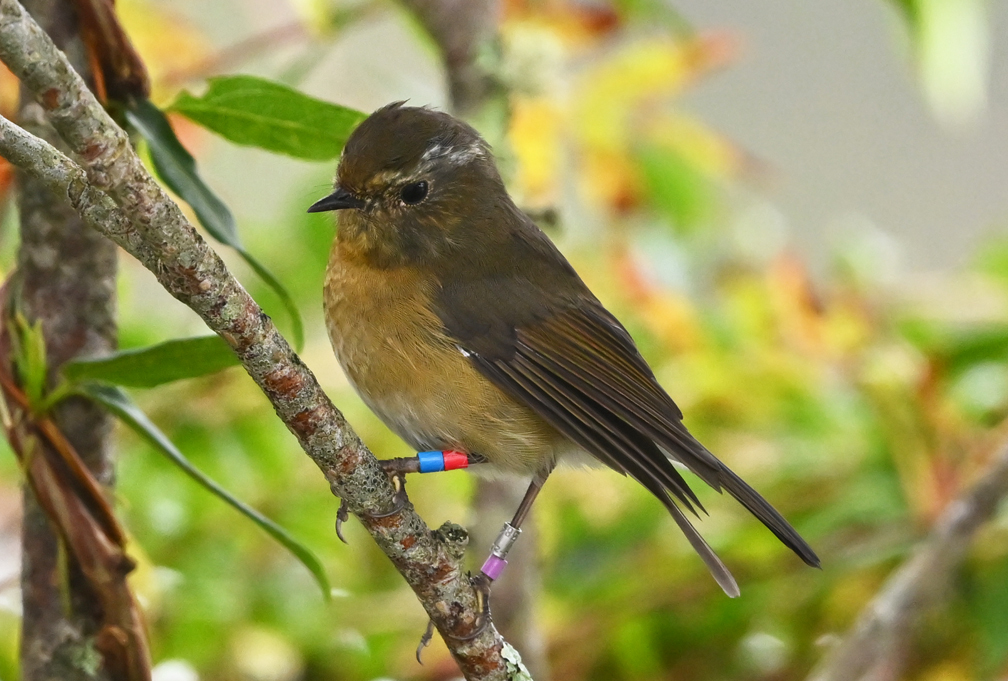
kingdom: Animalia
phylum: Chordata
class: Aves
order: Passeriformes
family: Muscicapidae
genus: Tarsiger
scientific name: Tarsiger johnstoniae
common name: Collared bush robin
